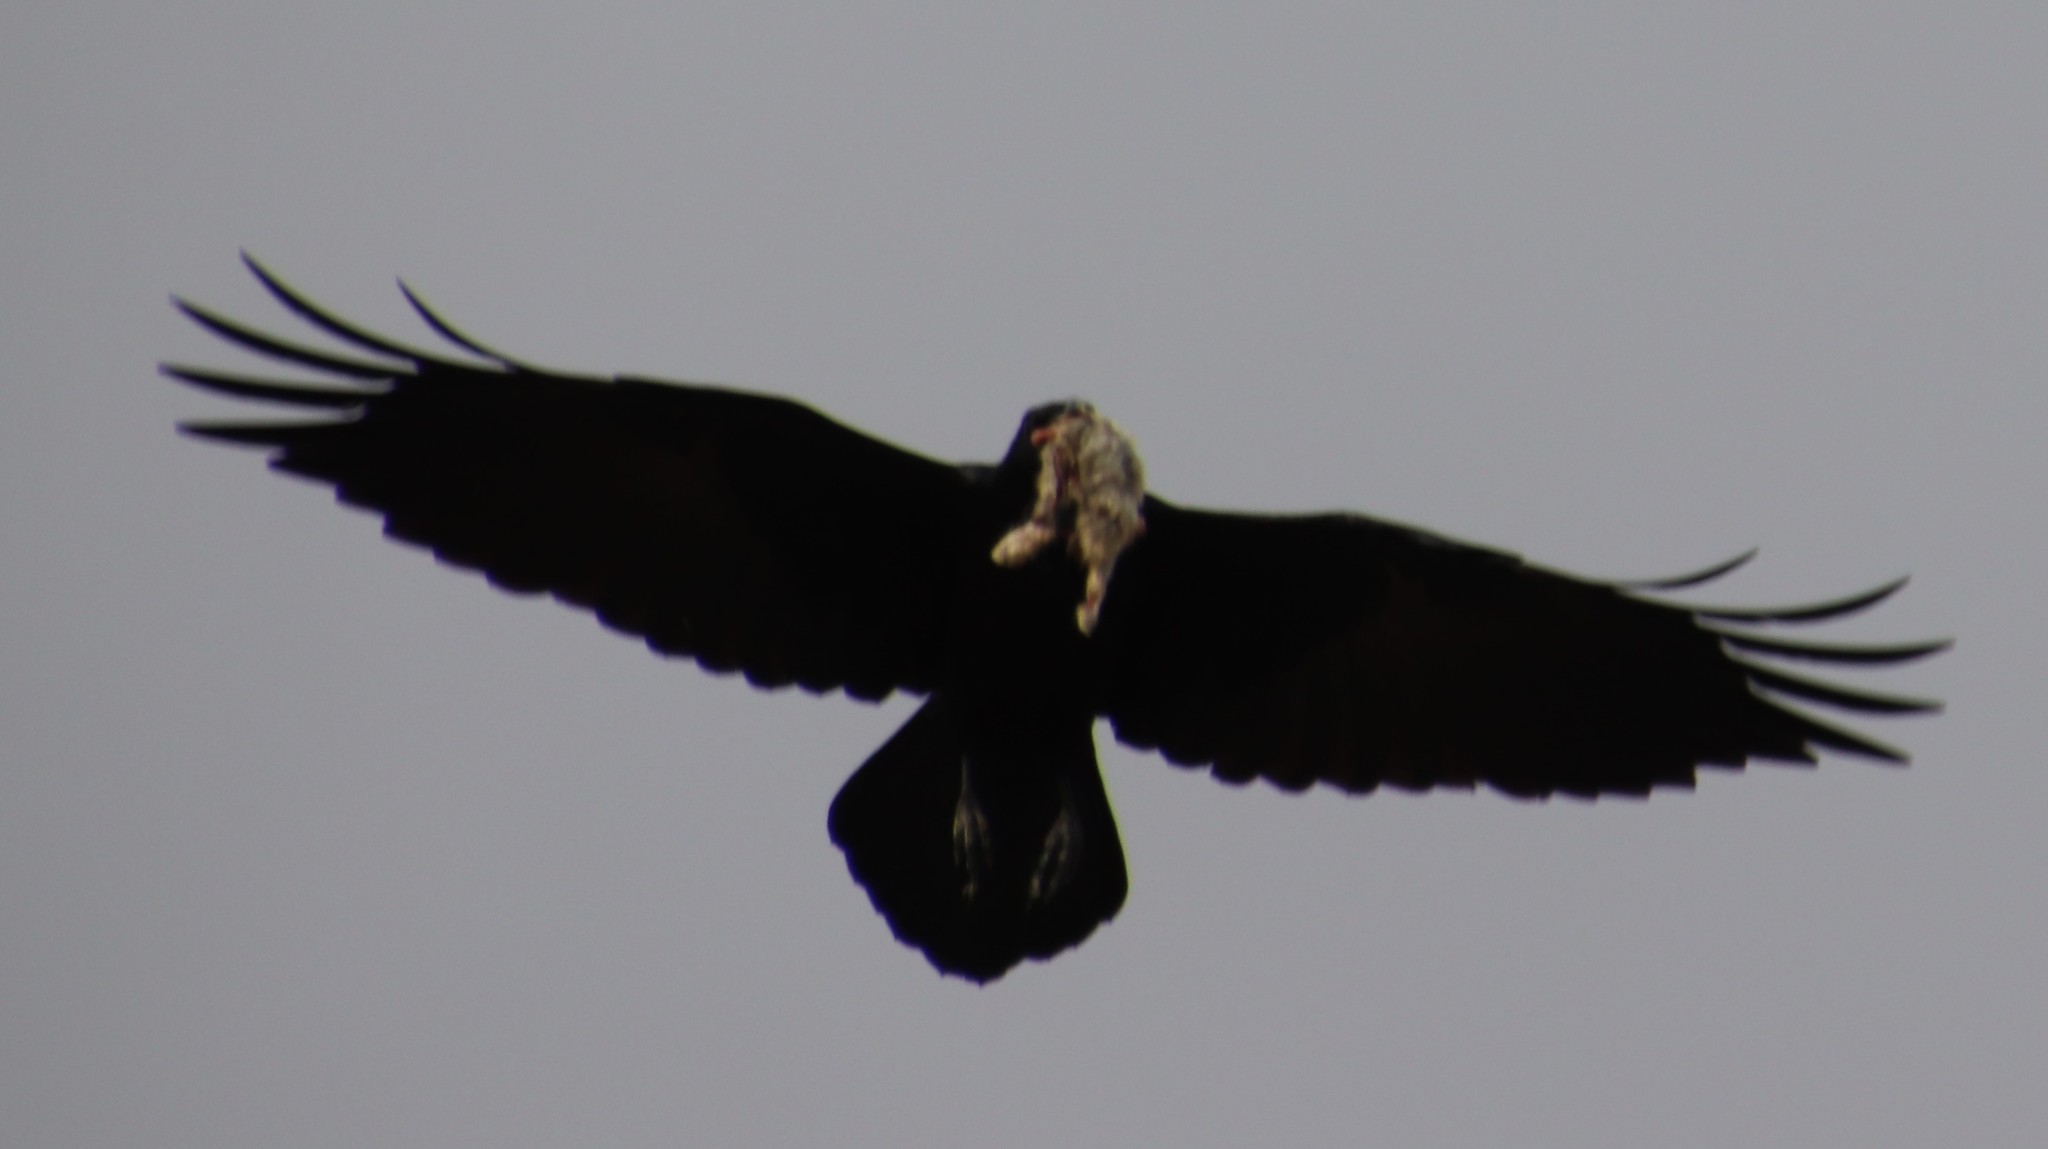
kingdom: Animalia
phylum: Chordata
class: Aves
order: Passeriformes
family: Corvidae
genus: Corvus
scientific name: Corvus corax
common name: Common raven
